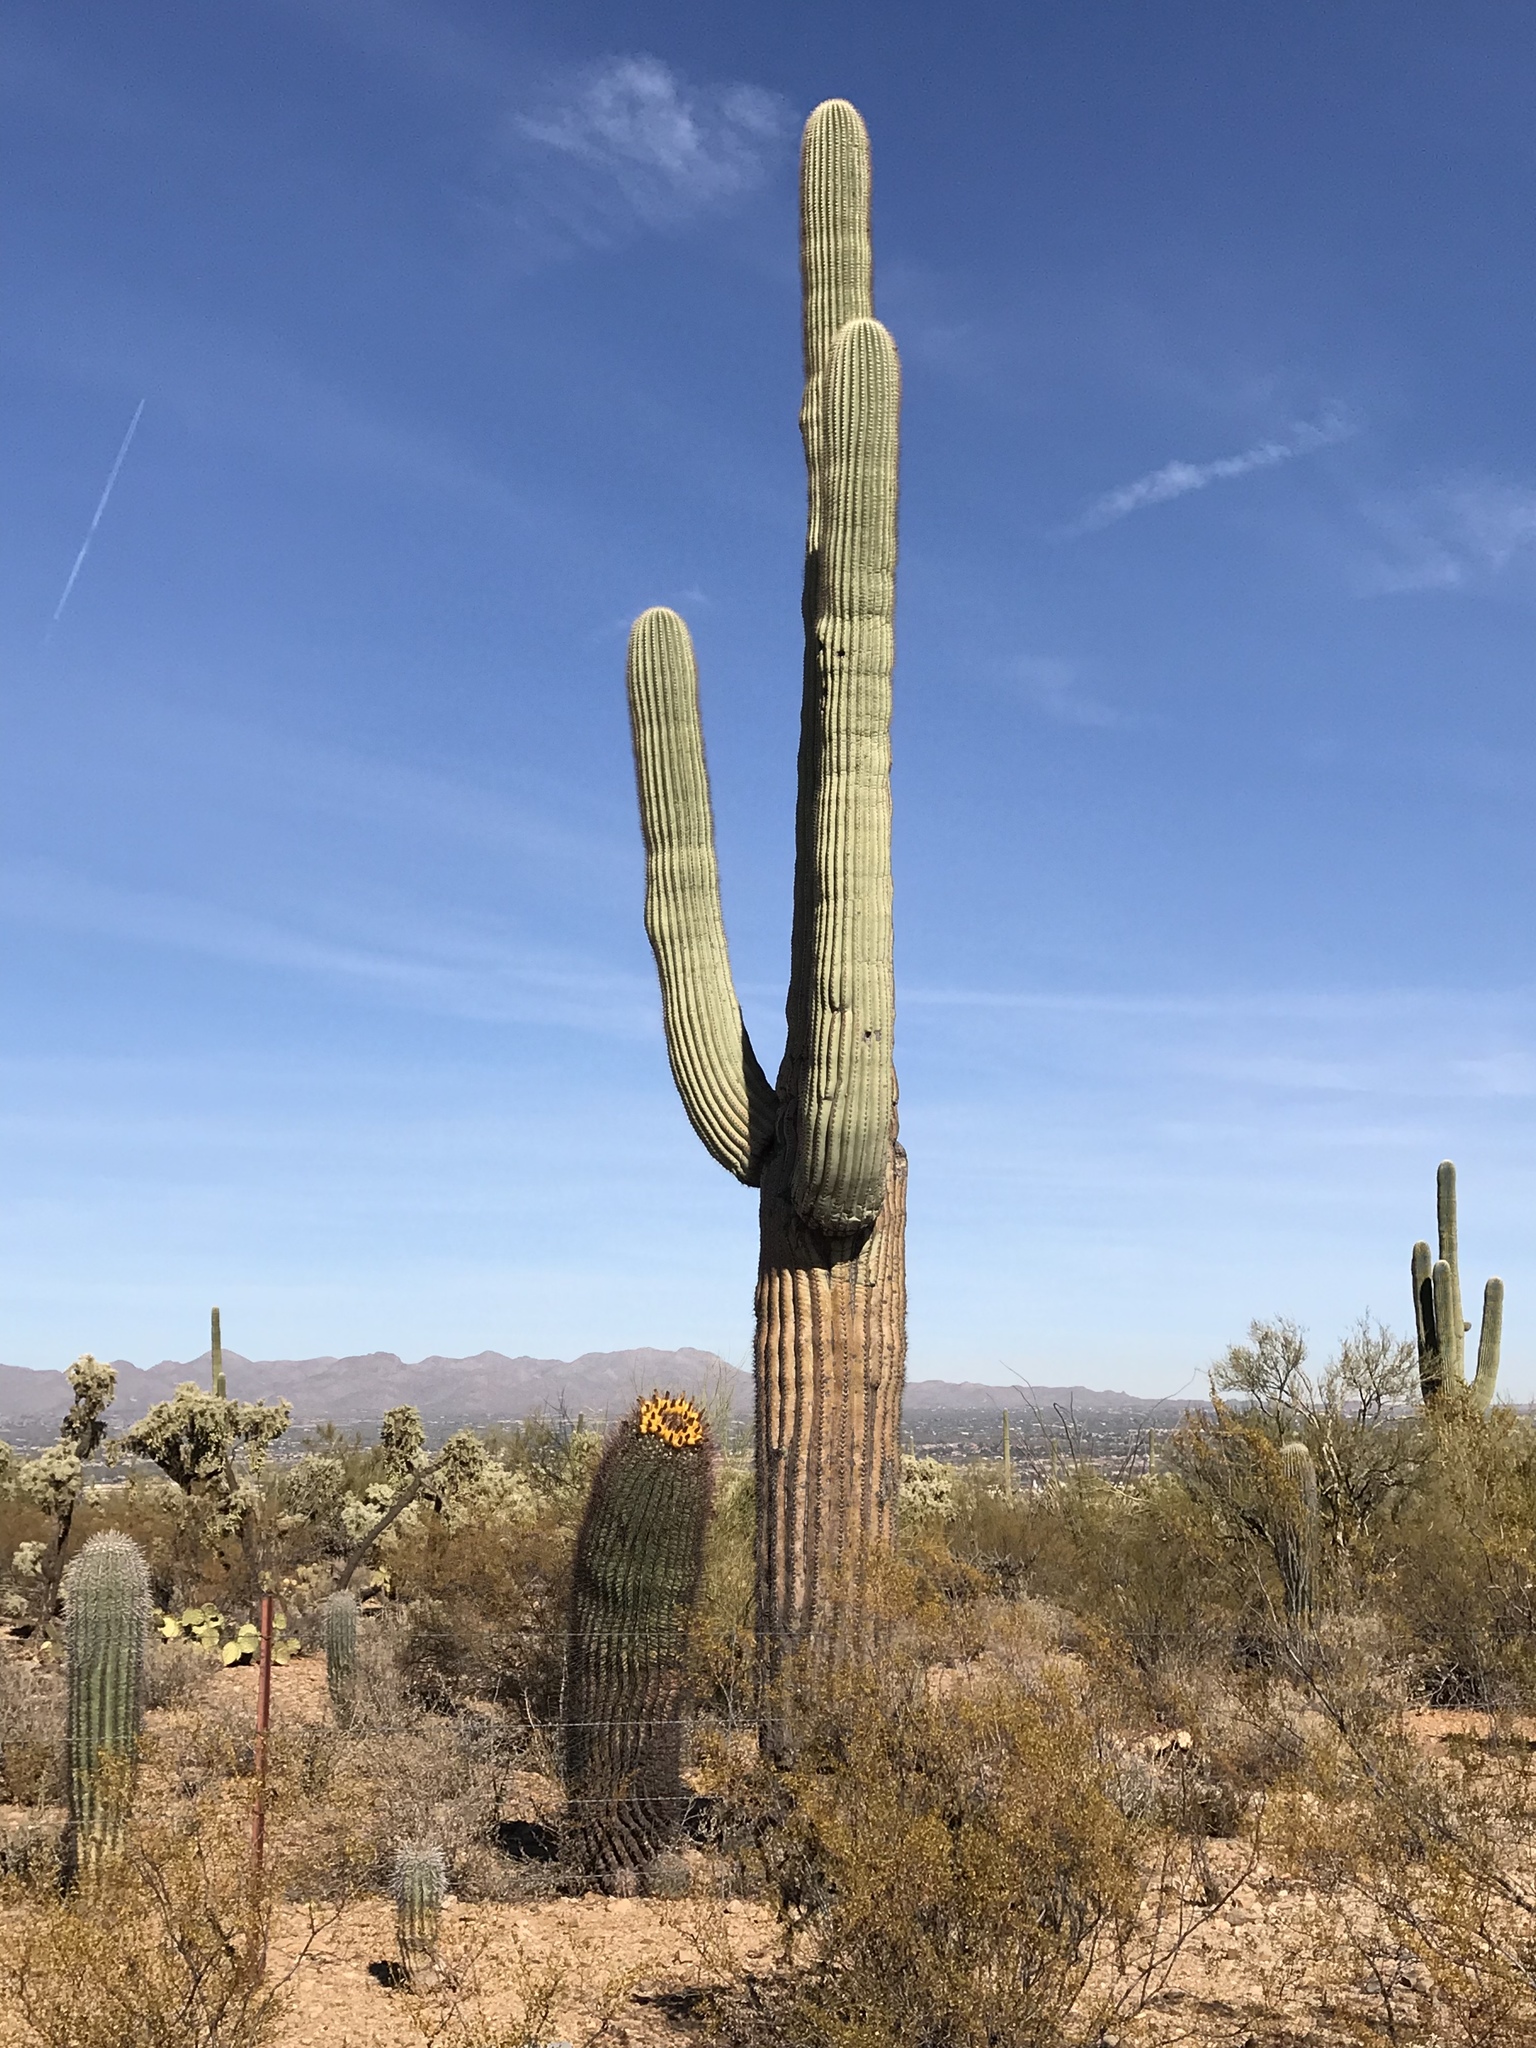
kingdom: Plantae
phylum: Tracheophyta
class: Magnoliopsida
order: Caryophyllales
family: Cactaceae
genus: Ferocactus
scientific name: Ferocactus wislizeni
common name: Candy barrel cactus
